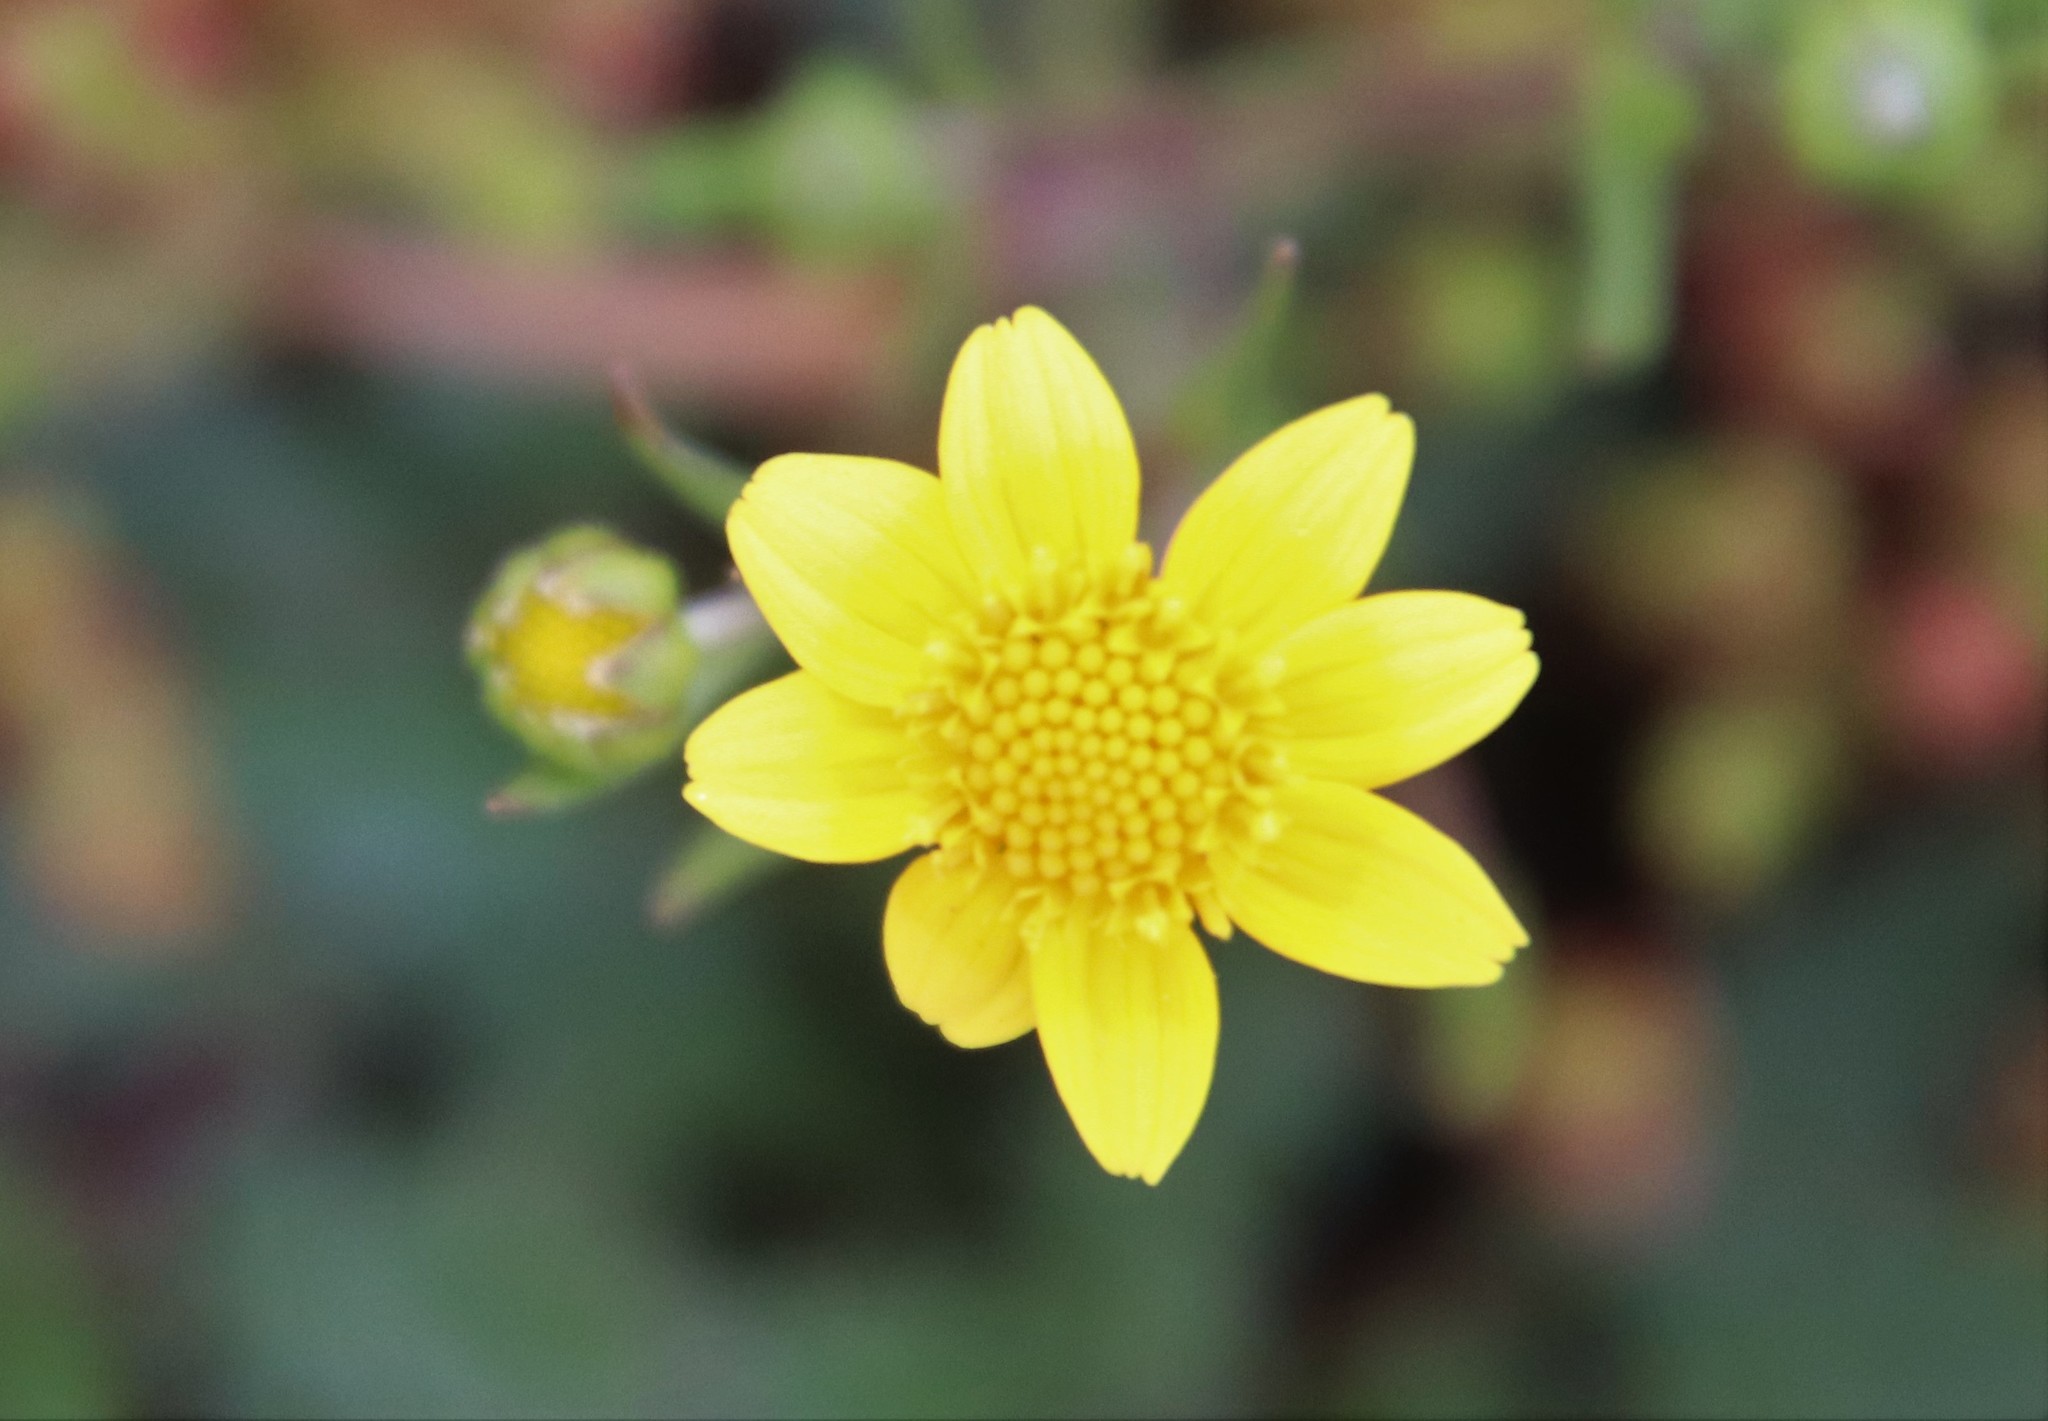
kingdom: Plantae
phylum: Tracheophyta
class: Magnoliopsida
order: Asterales
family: Asteraceae
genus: Lasthenia
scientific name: Lasthenia gracilis
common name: Common goldfields
